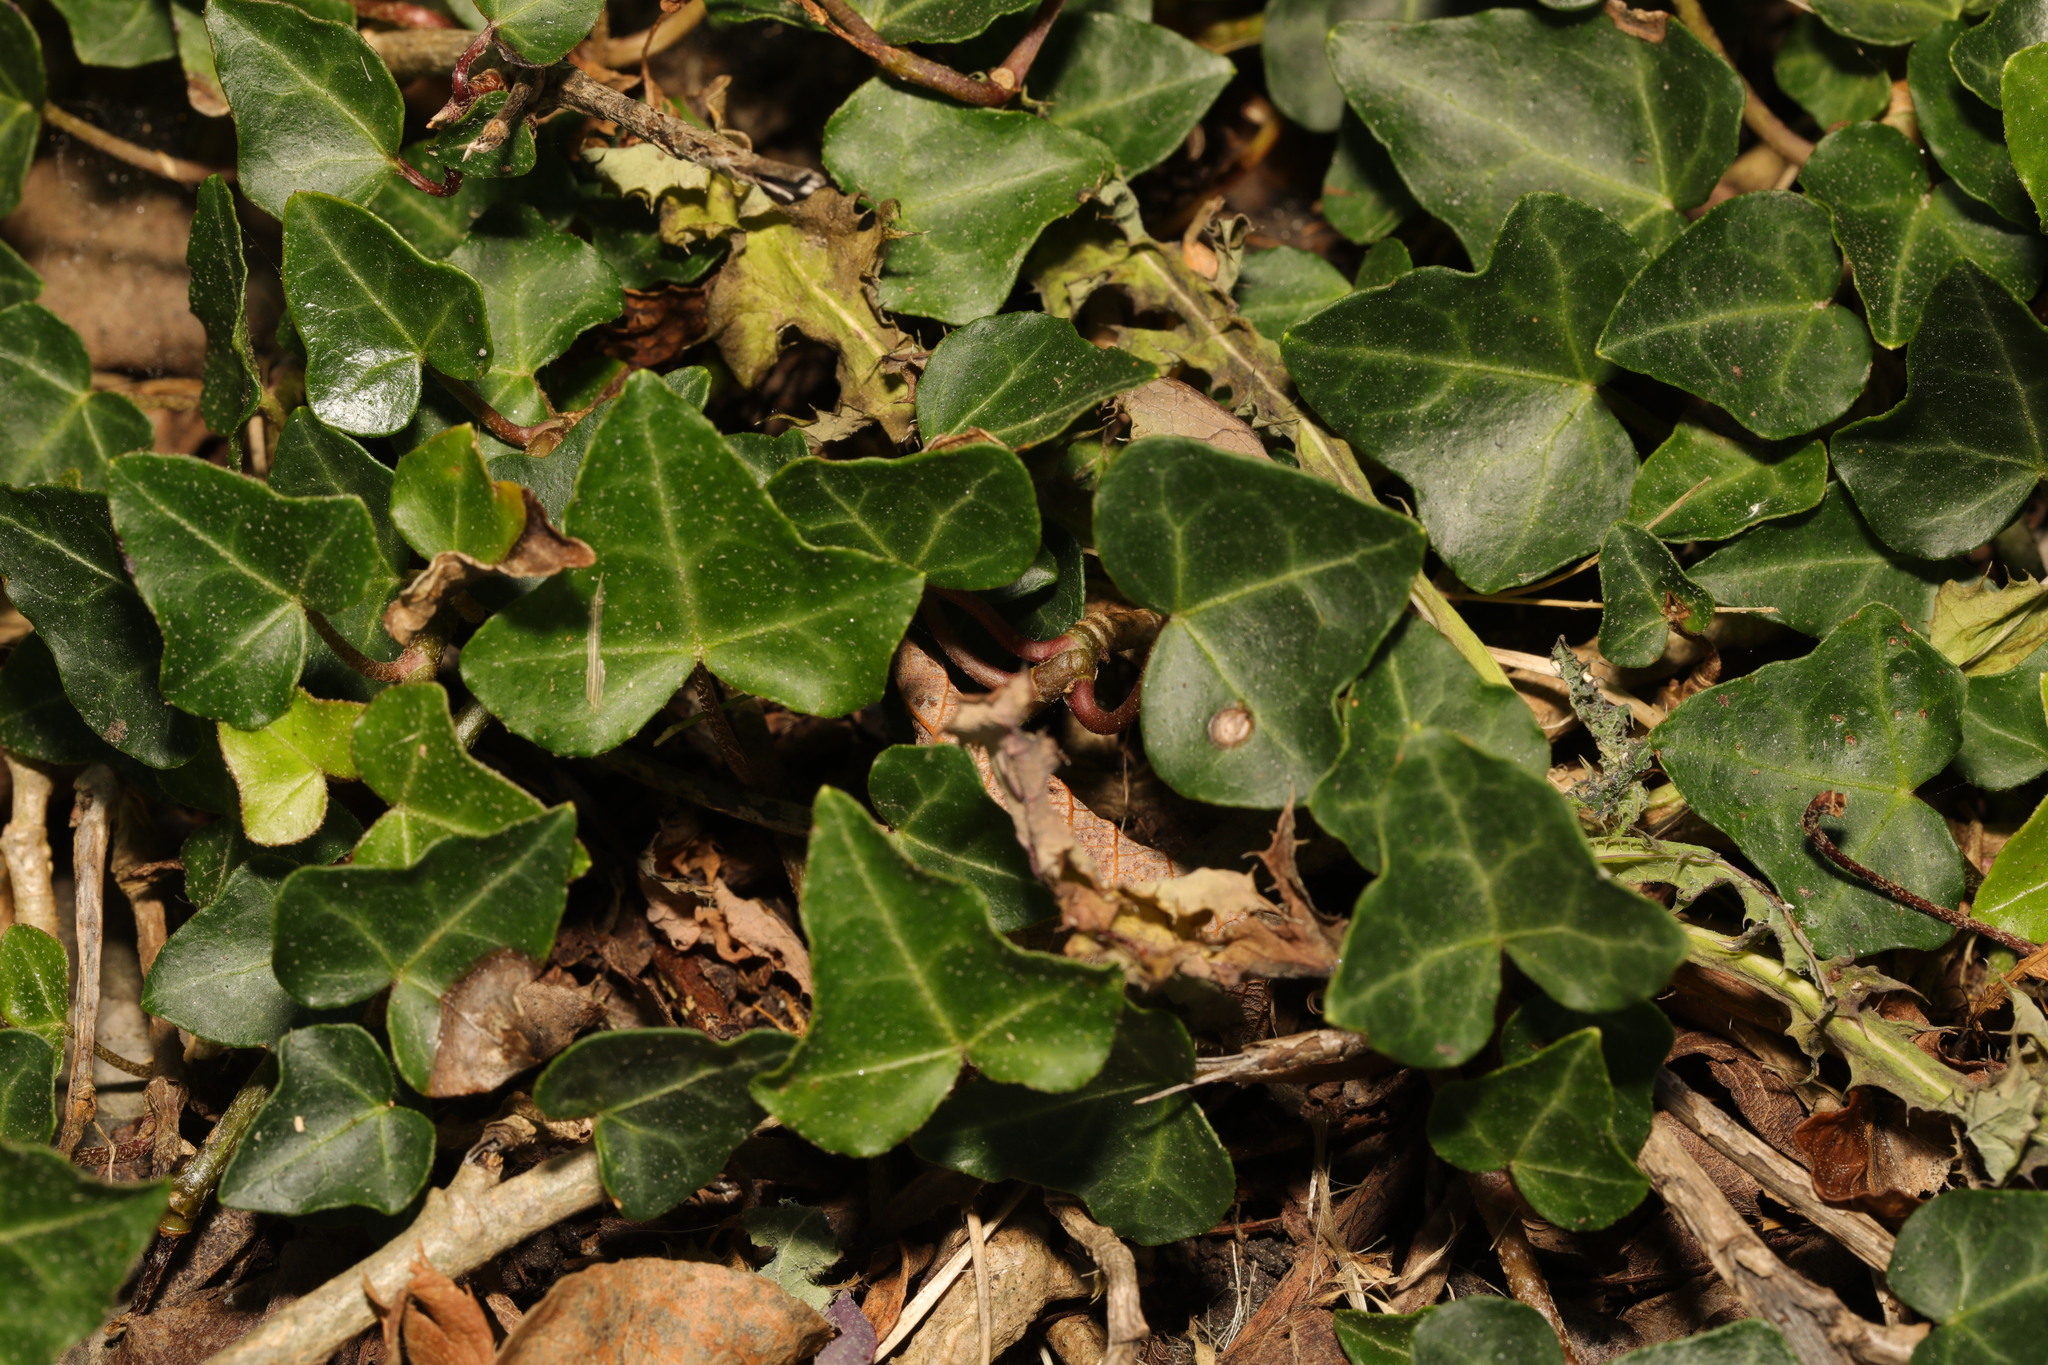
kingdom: Plantae
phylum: Tracheophyta
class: Magnoliopsida
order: Apiales
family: Araliaceae
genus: Hedera
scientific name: Hedera helix
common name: Ivy
